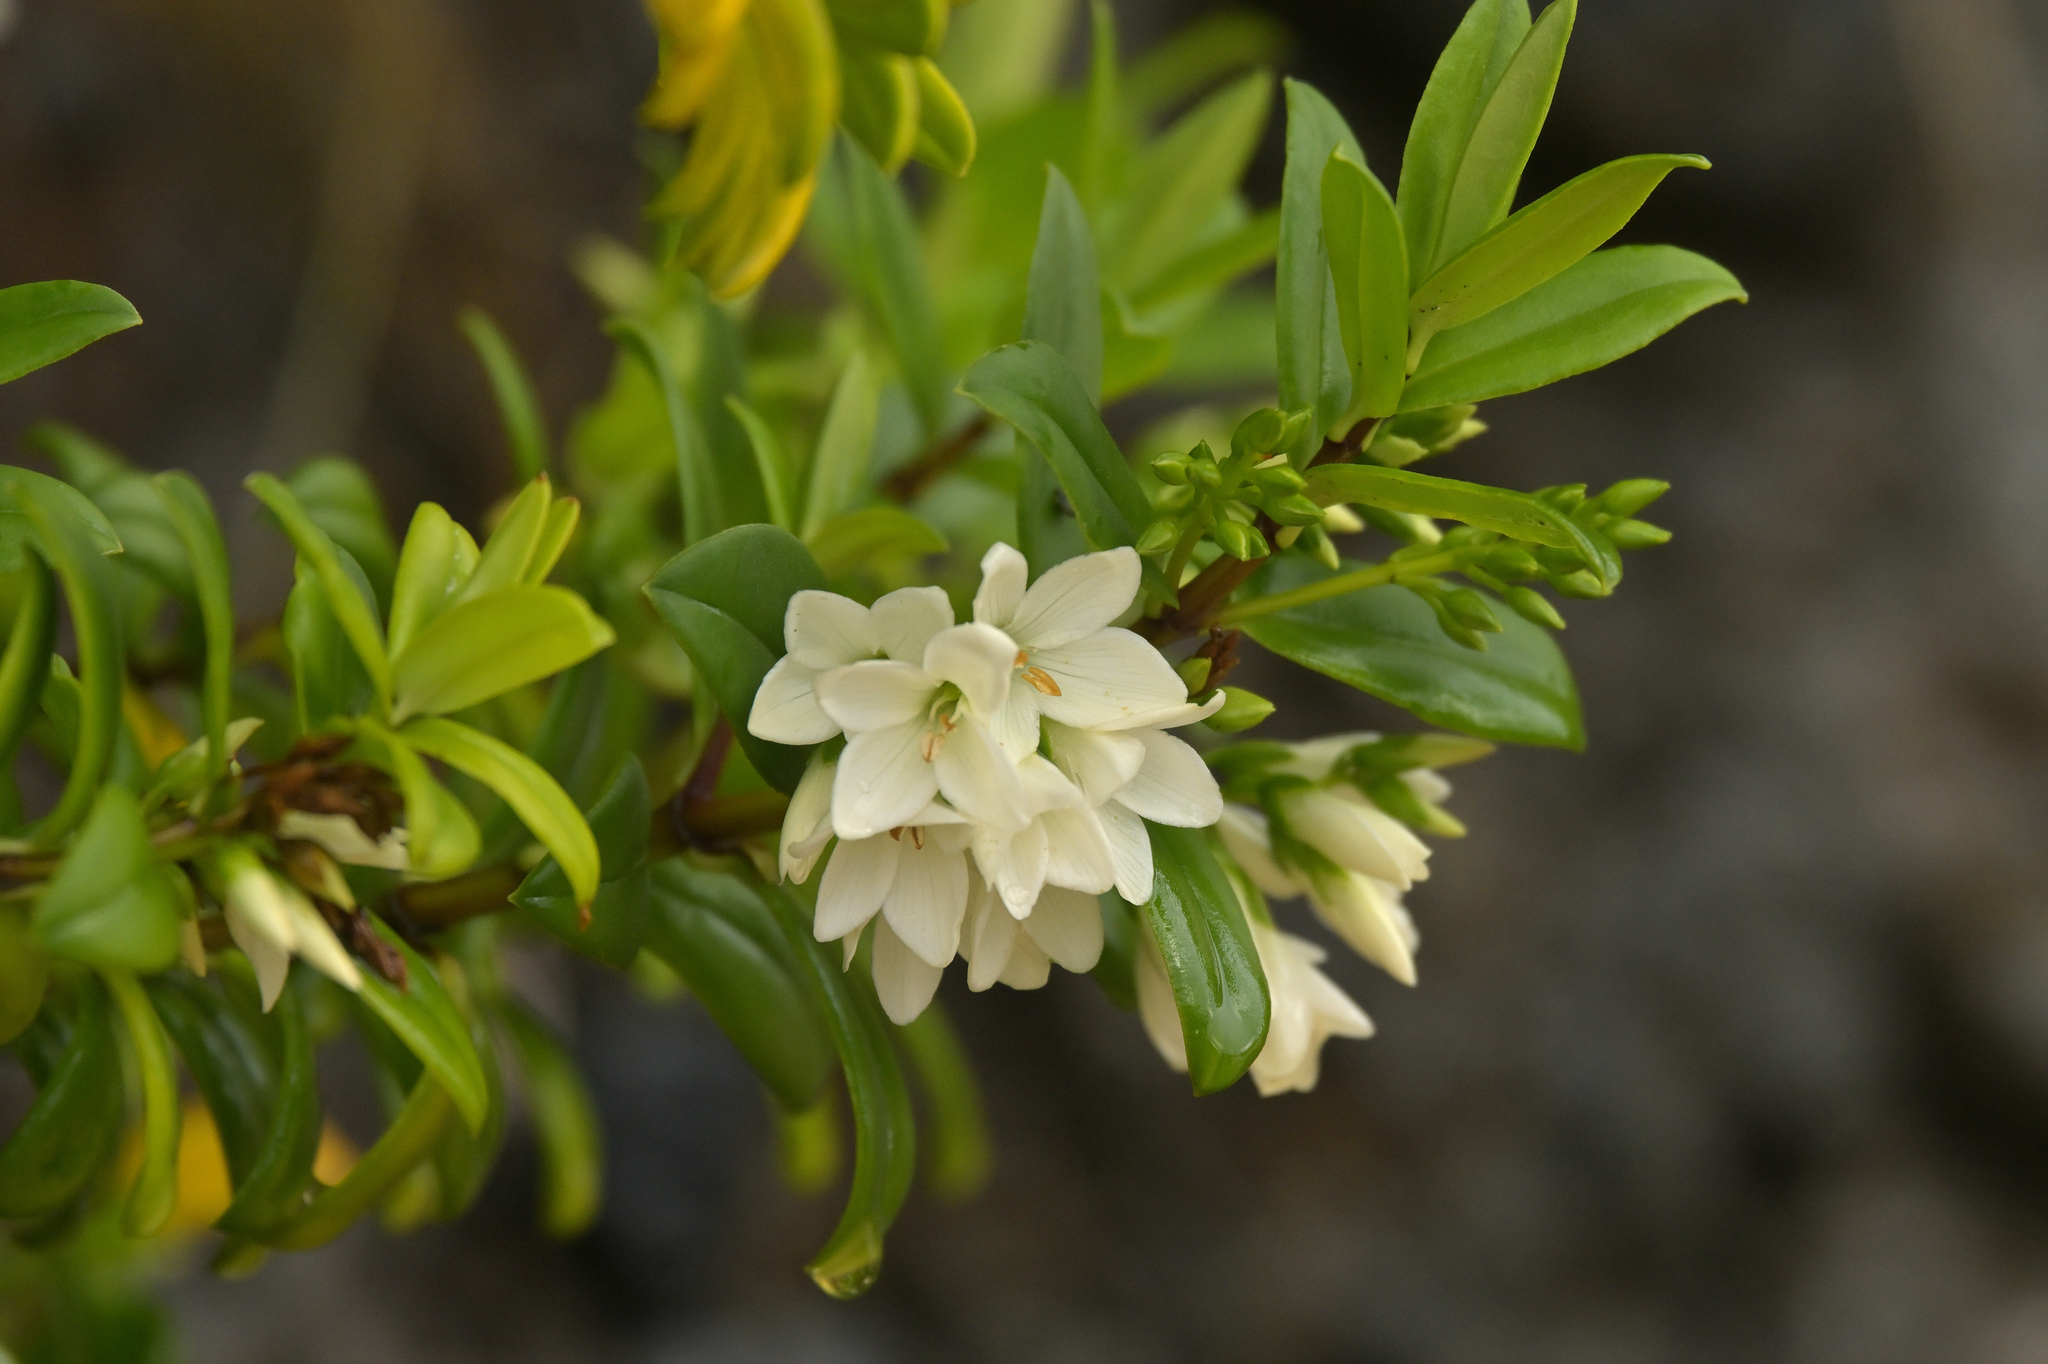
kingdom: Plantae
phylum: Tracheophyta
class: Magnoliopsida
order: Lamiales
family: Plantaginaceae
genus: Veronica
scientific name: Veronica elliptica
